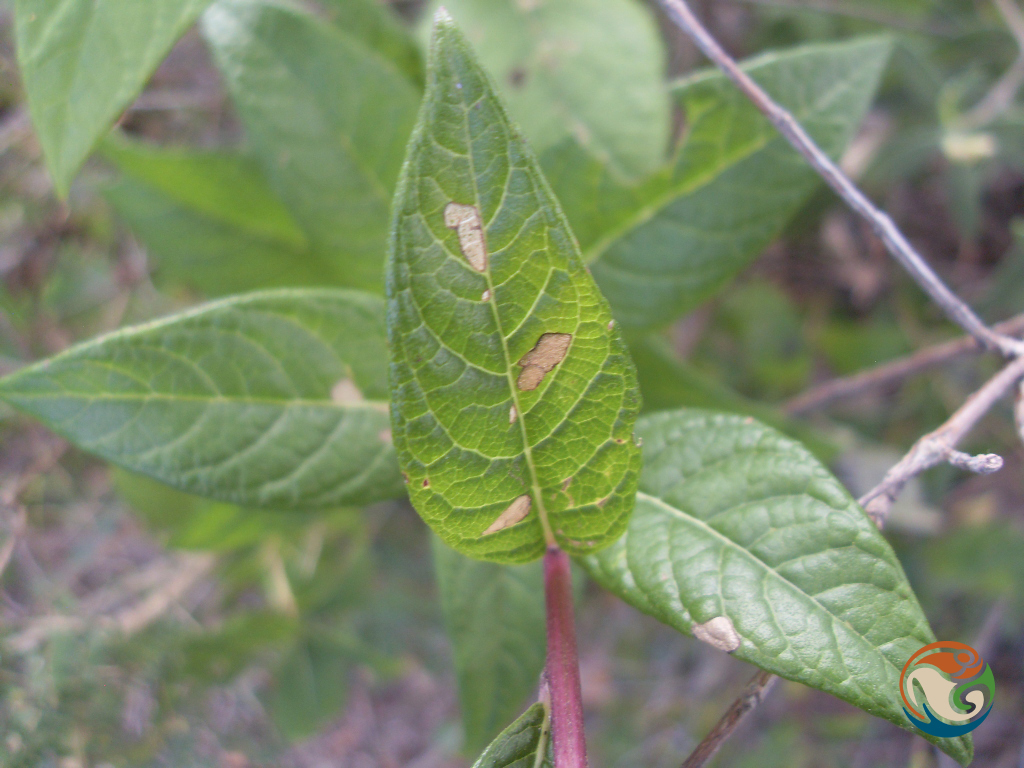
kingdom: Plantae
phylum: Tracheophyta
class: Magnoliopsida
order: Asterales
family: Asteraceae
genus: Vernonia
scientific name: Vernonia karvinskiana
